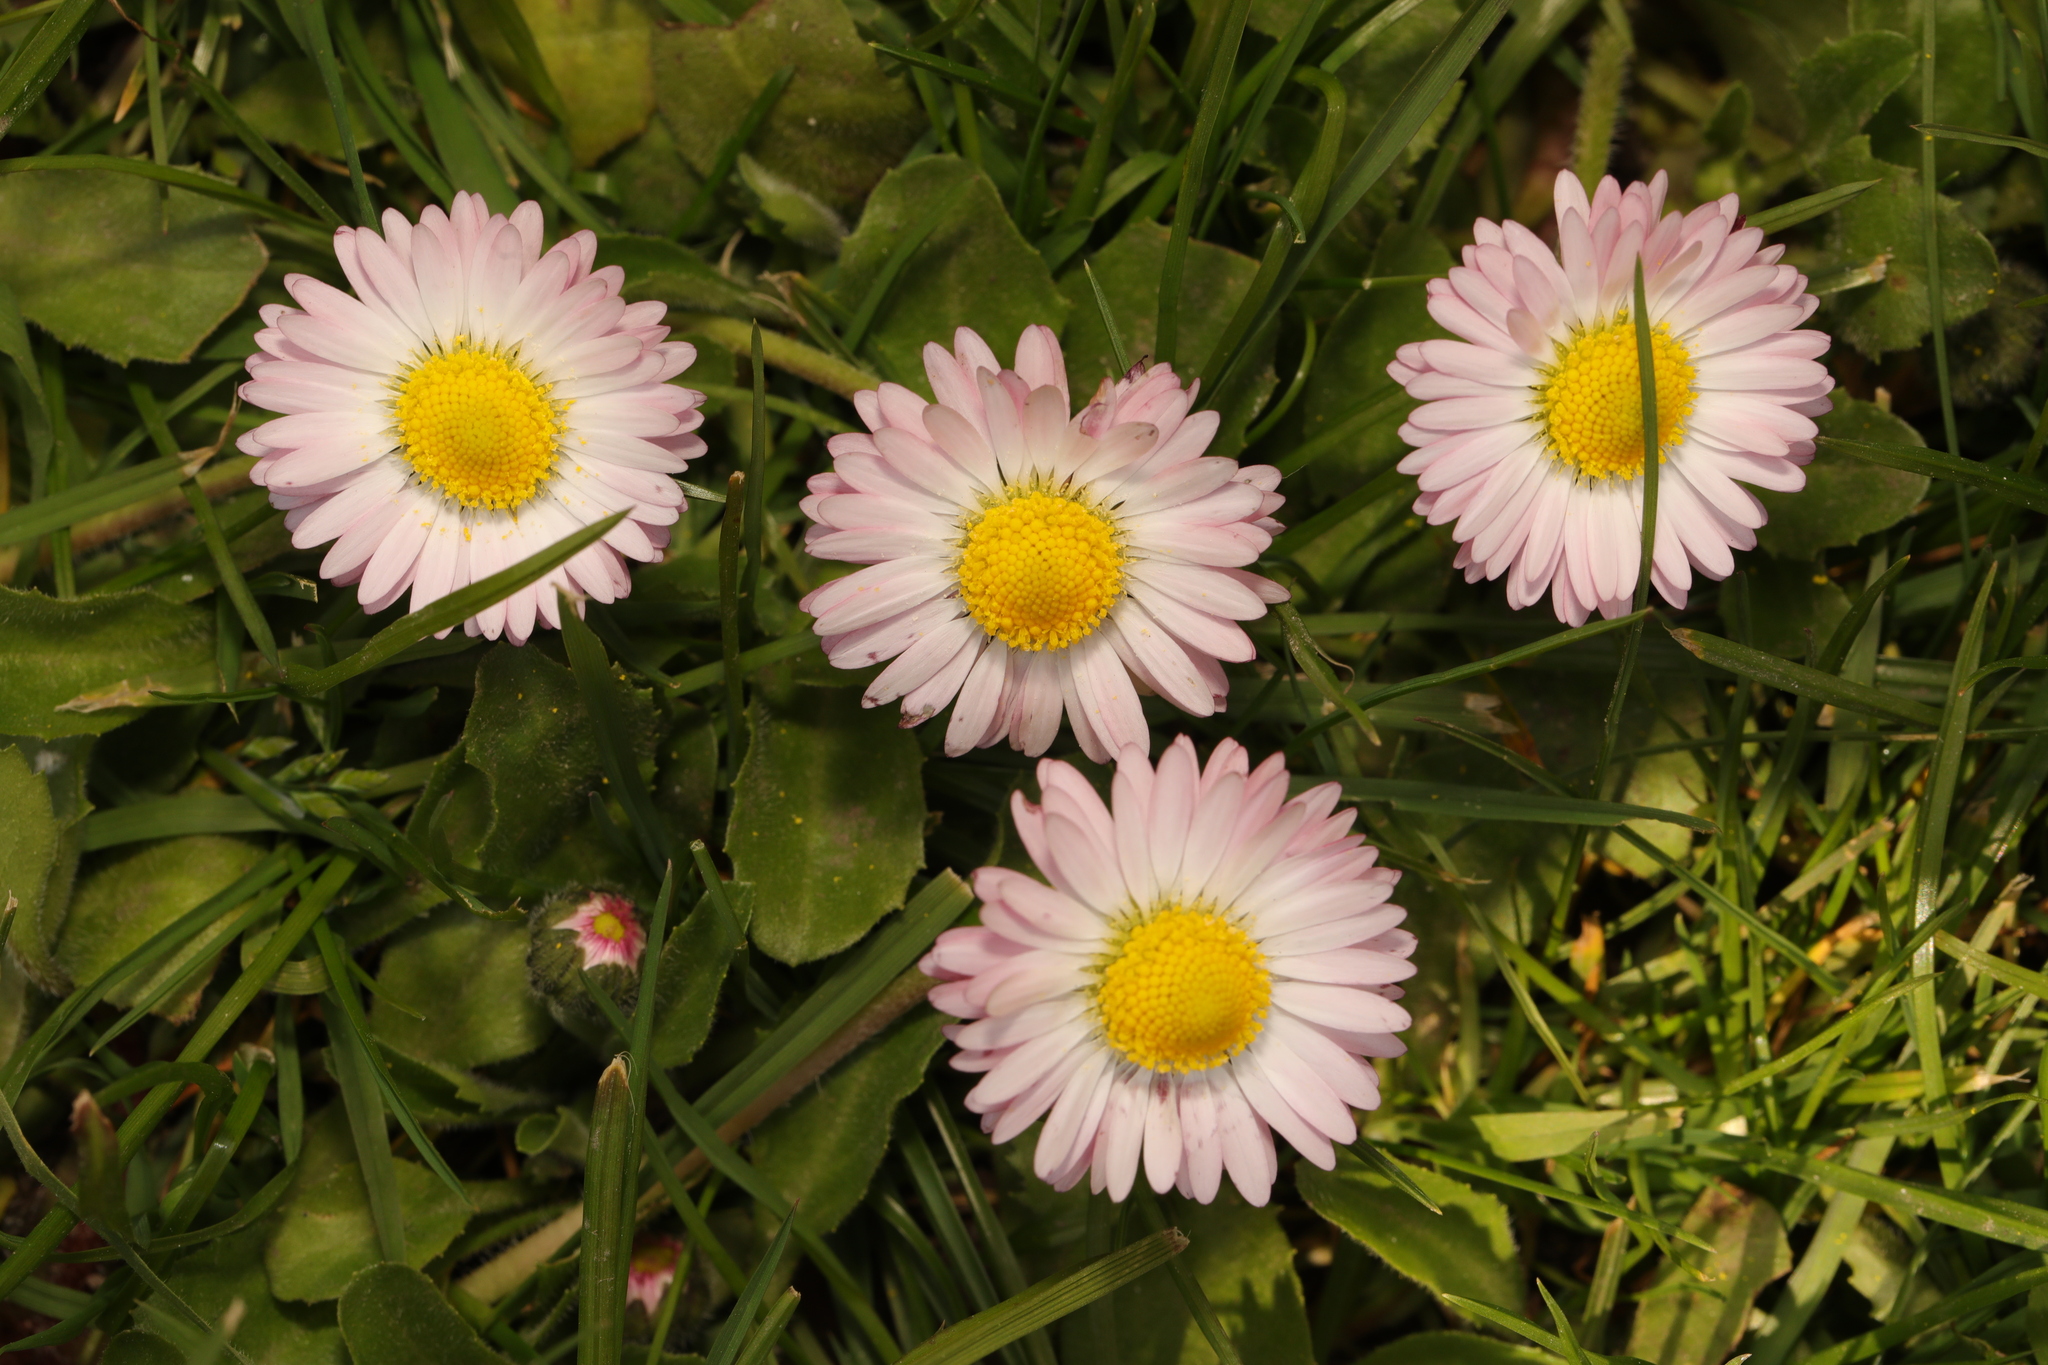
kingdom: Plantae
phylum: Tracheophyta
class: Magnoliopsida
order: Asterales
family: Asteraceae
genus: Bellis
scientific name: Bellis perennis
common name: Lawndaisy
